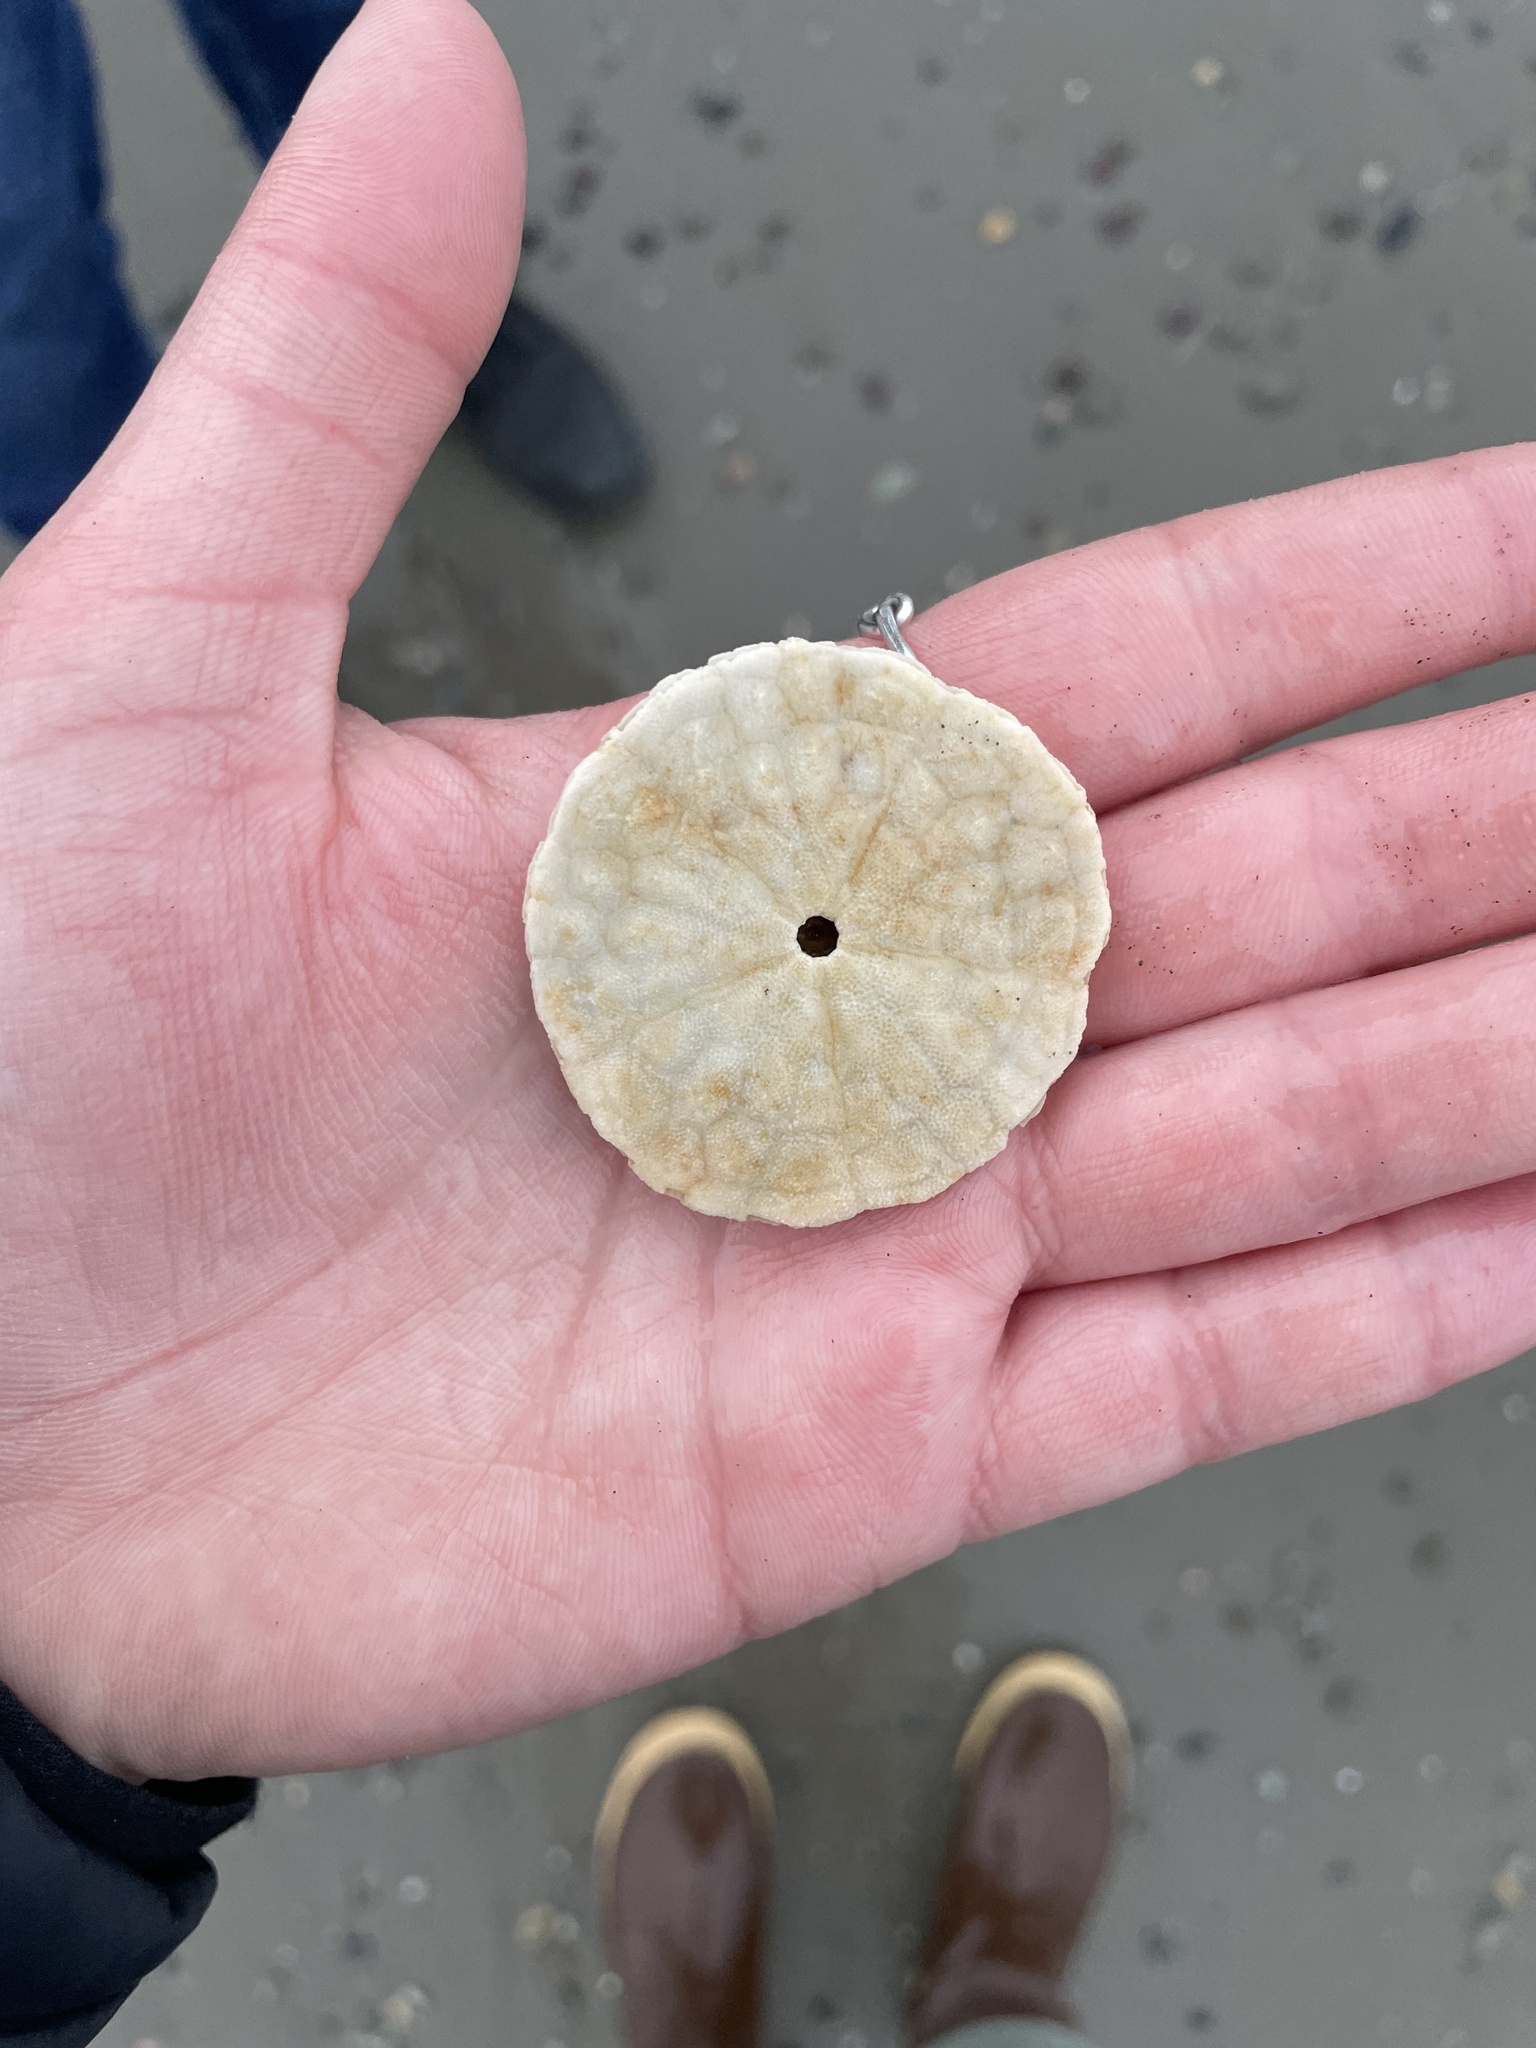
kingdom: Animalia
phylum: Echinodermata
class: Echinoidea
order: Echinolampadacea
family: Echinarachniidae
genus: Echinarachnius
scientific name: Echinarachnius parma
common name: Common sand dollar
